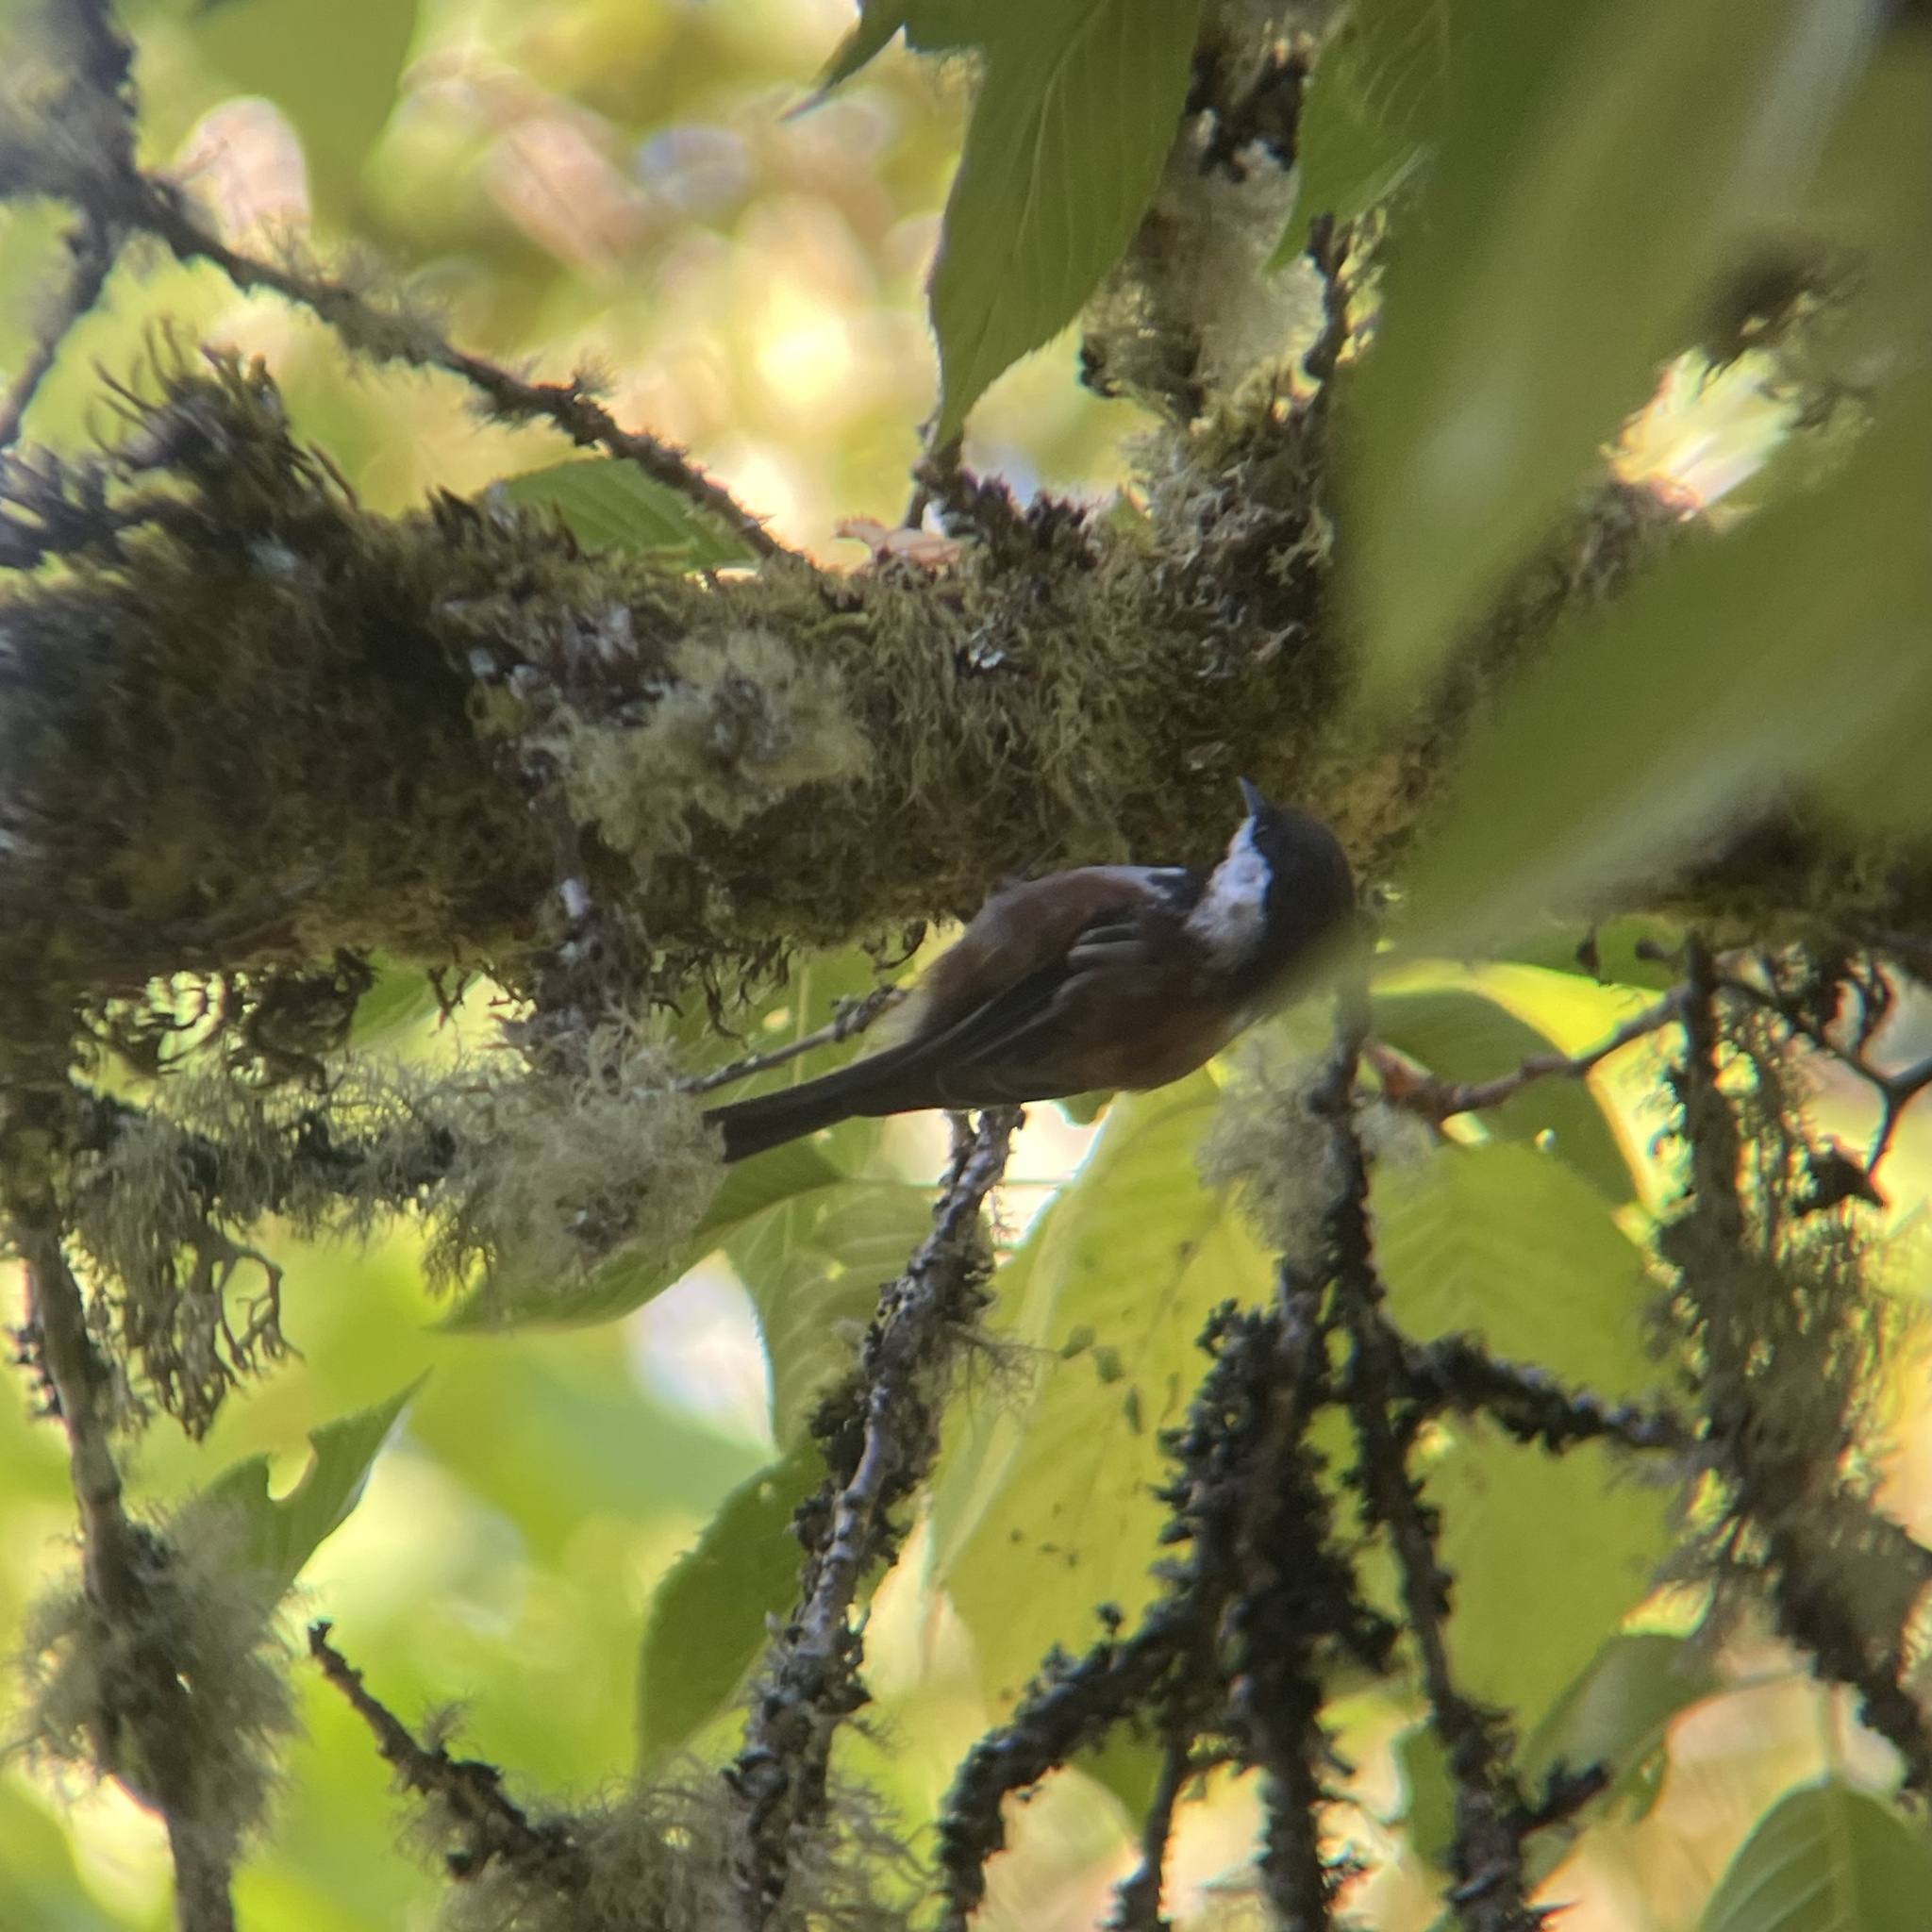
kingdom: Animalia
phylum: Chordata
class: Aves
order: Passeriformes
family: Paridae
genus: Poecile
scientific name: Poecile rufescens
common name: Chestnut-backed chickadee
